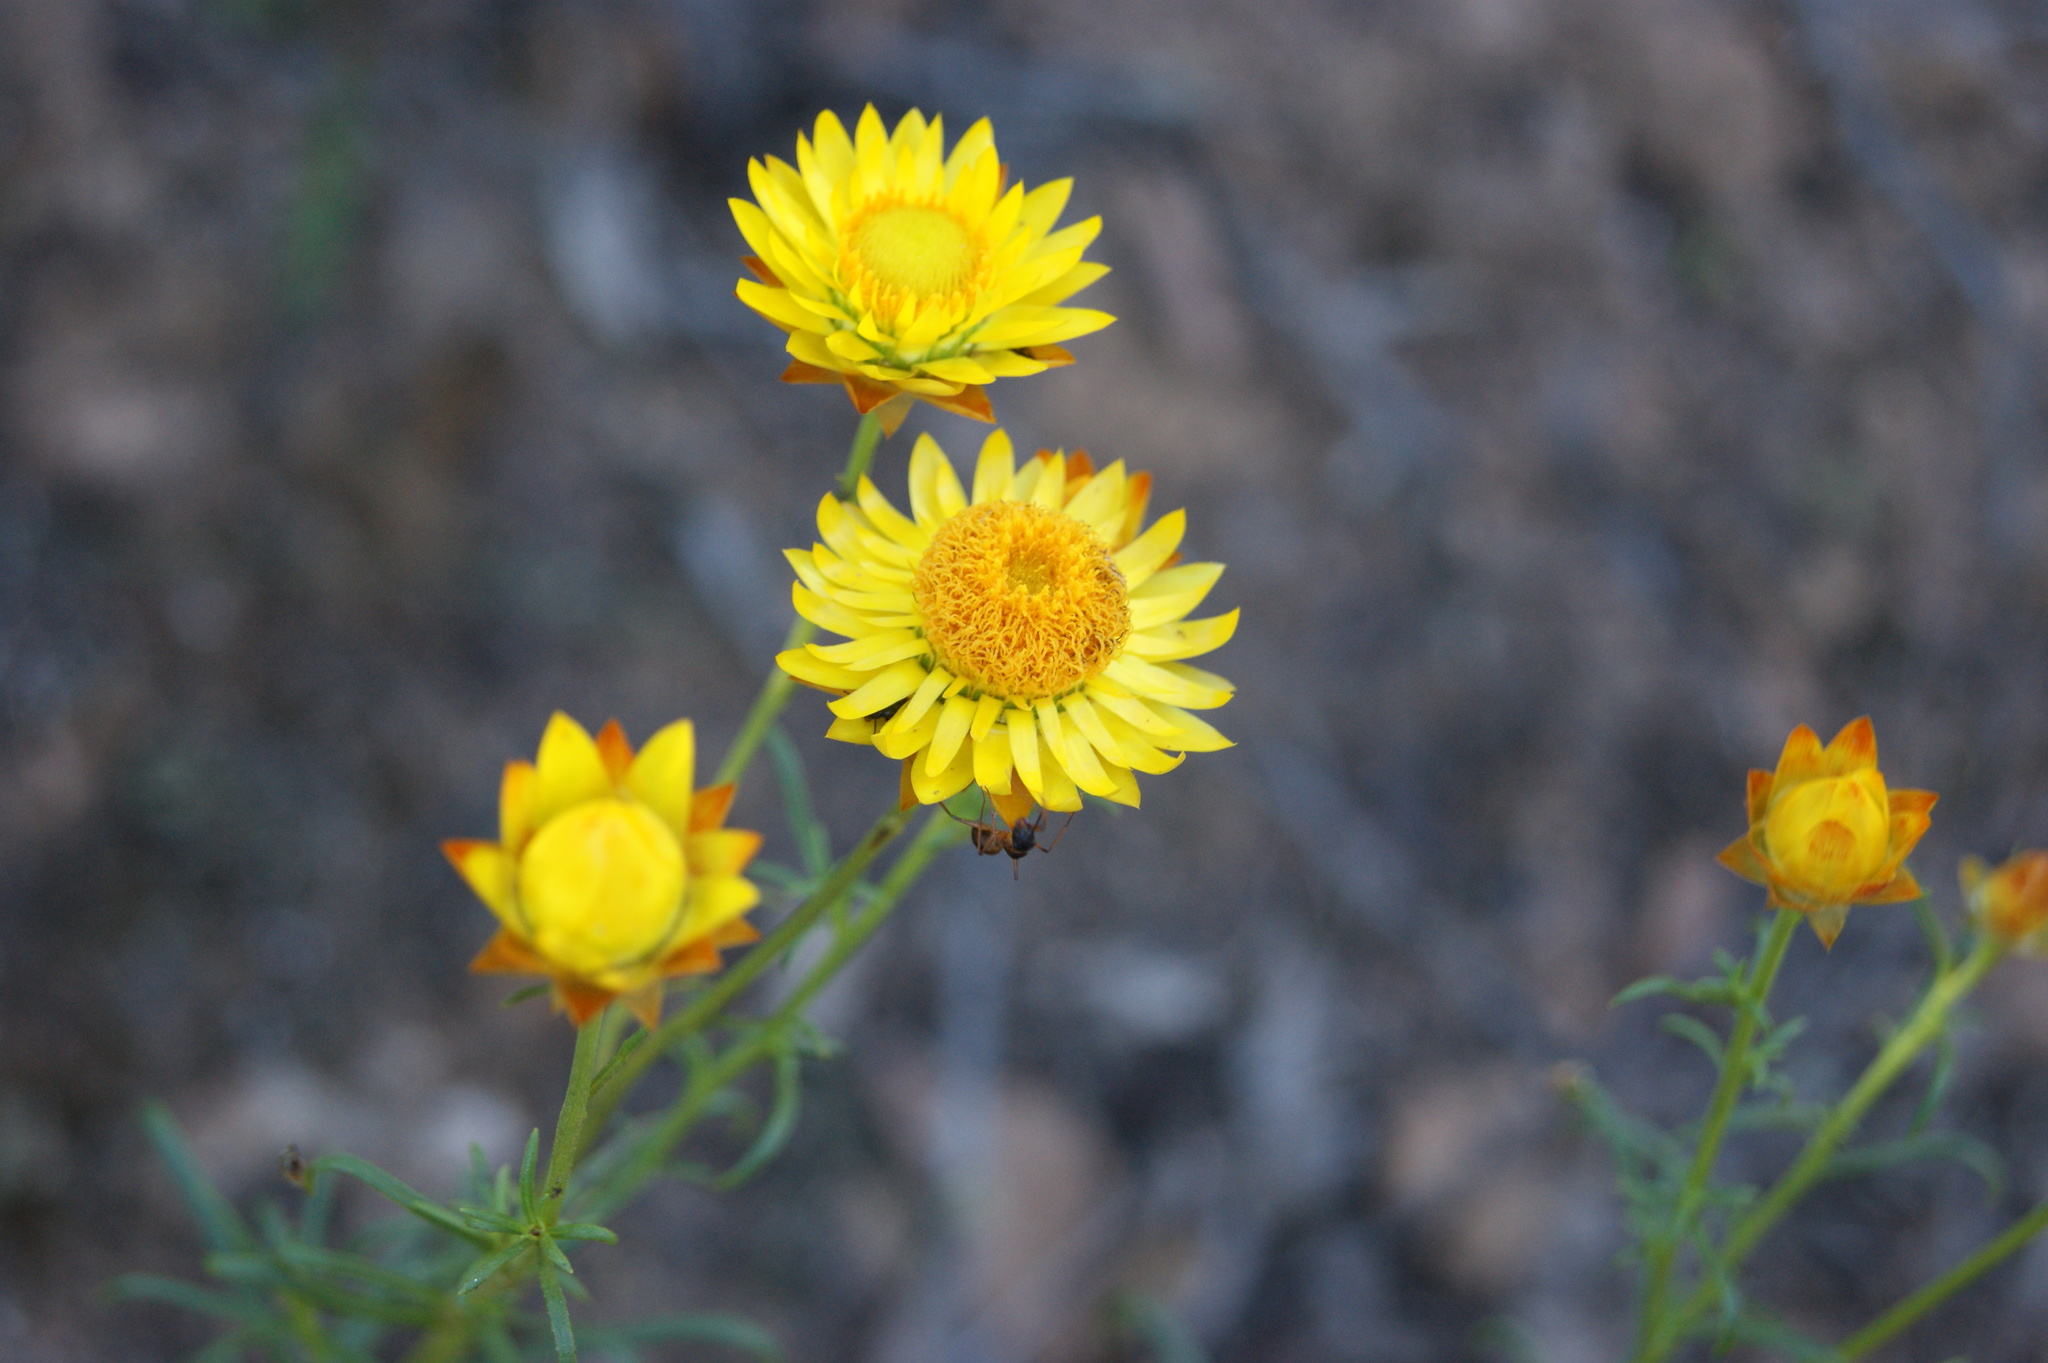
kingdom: Plantae
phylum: Tracheophyta
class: Magnoliopsida
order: Asterales
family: Asteraceae
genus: Xerochrysum
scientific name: Xerochrysum viscosum
